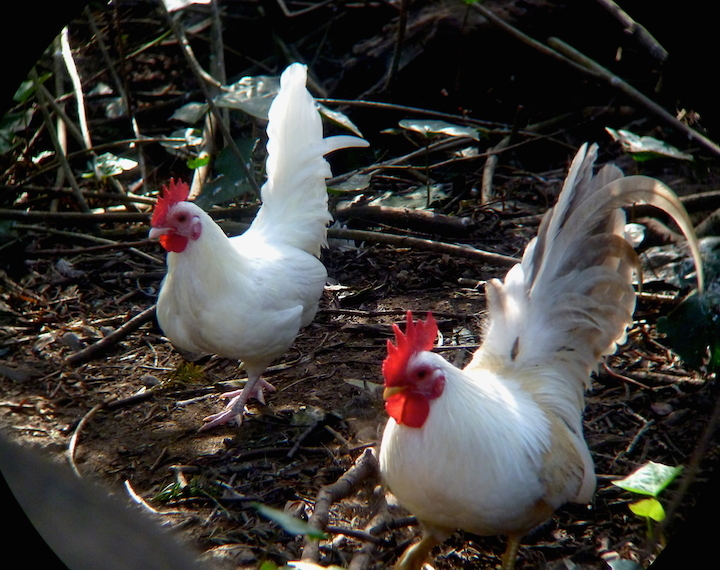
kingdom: Animalia
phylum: Chordata
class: Aves
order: Galliformes
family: Phasianidae
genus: Gallus
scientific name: Gallus gallus
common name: Red junglefowl
